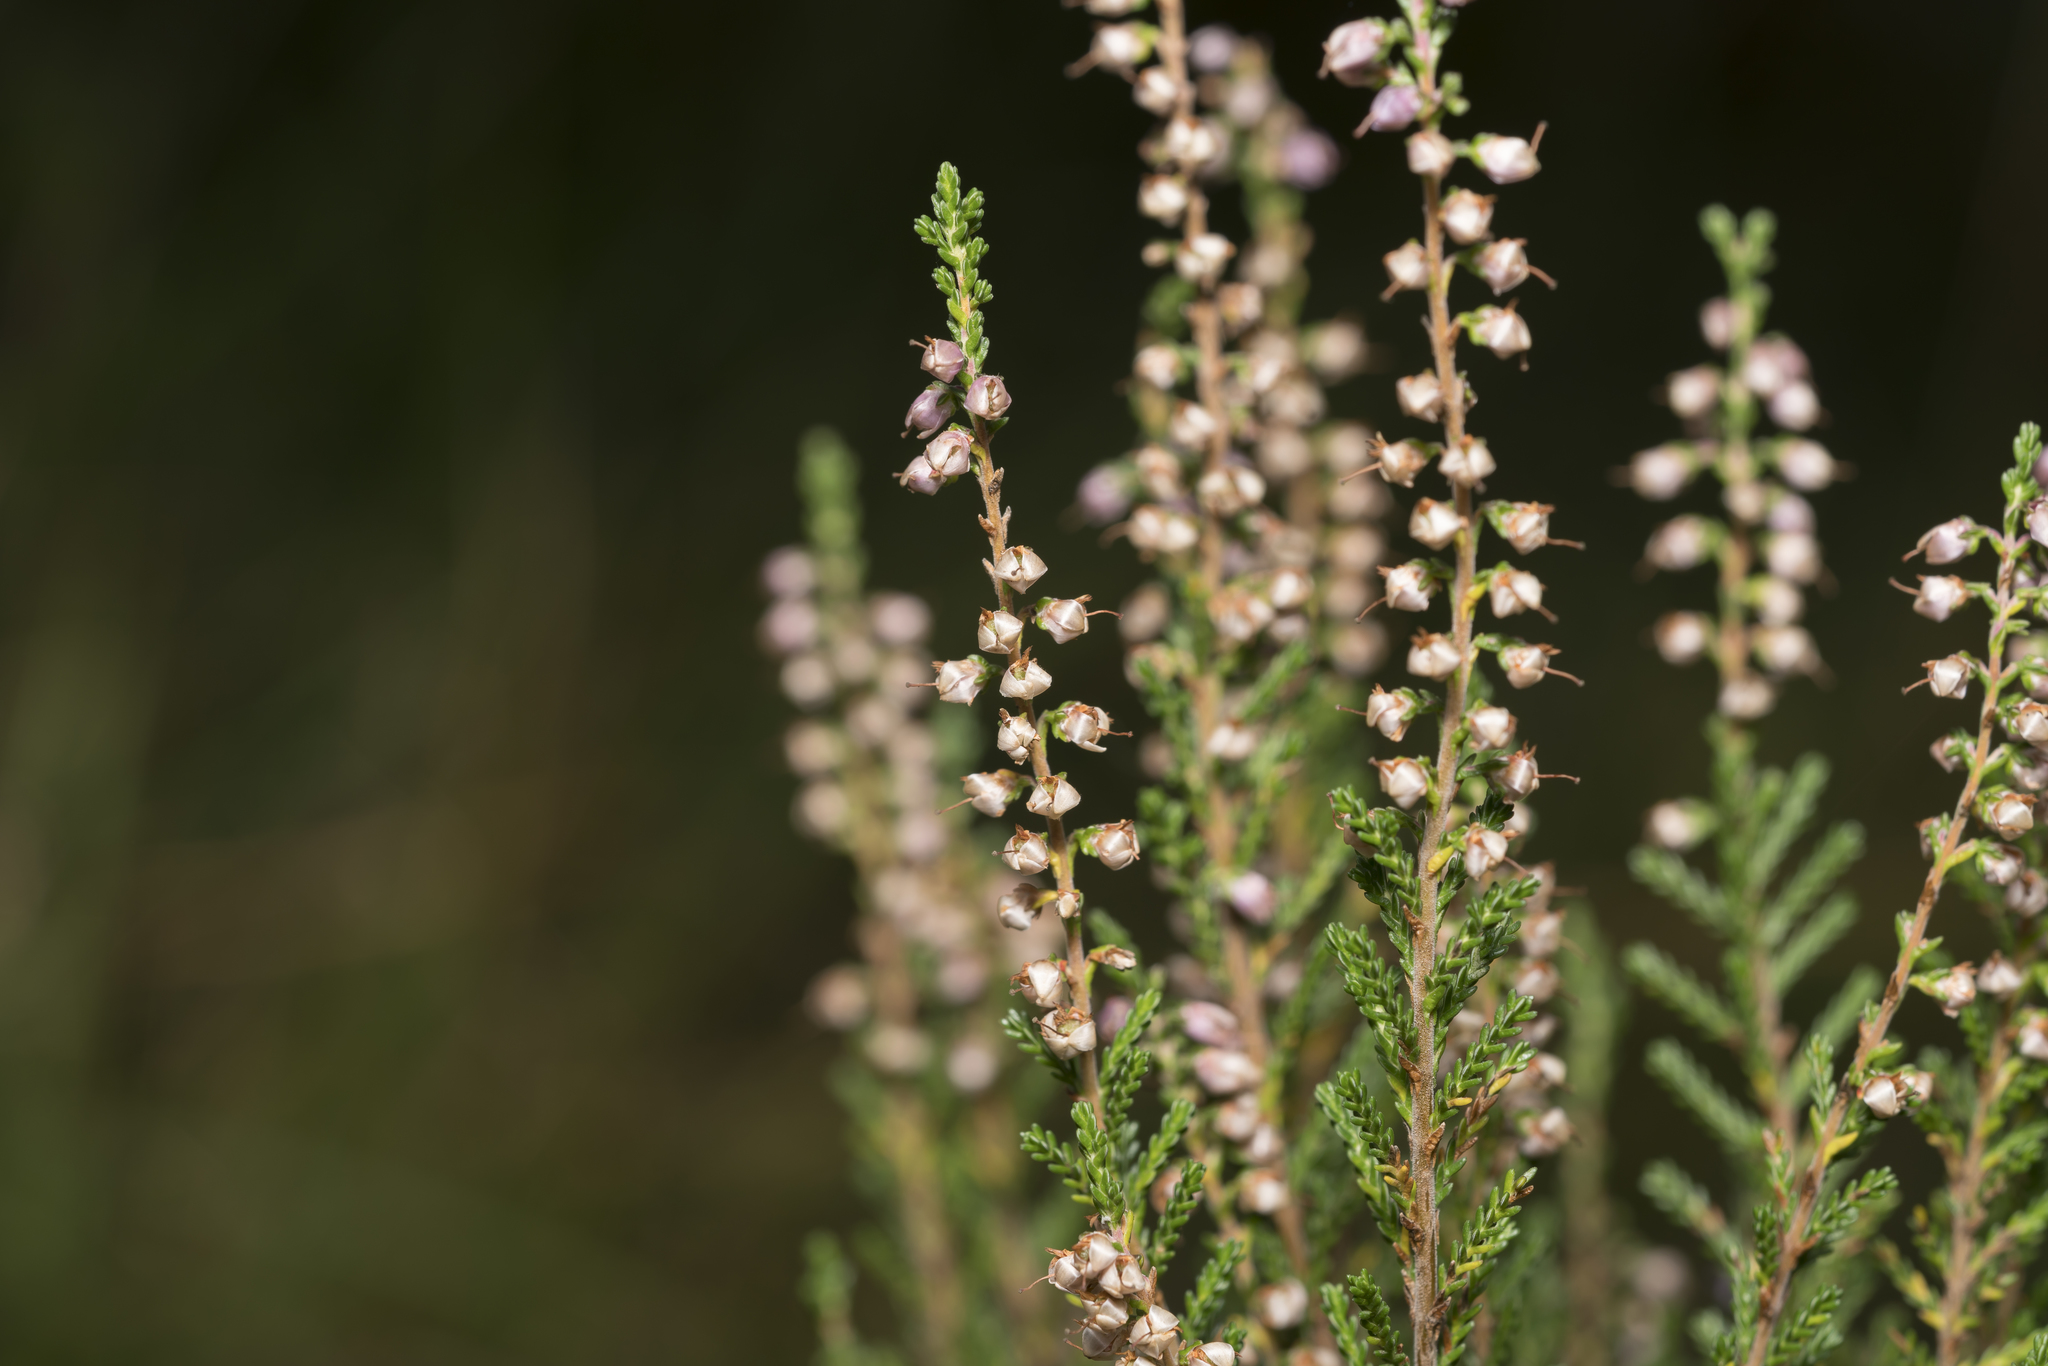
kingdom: Plantae
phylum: Tracheophyta
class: Magnoliopsida
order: Ericales
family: Ericaceae
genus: Calluna
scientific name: Calluna vulgaris
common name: Heather
